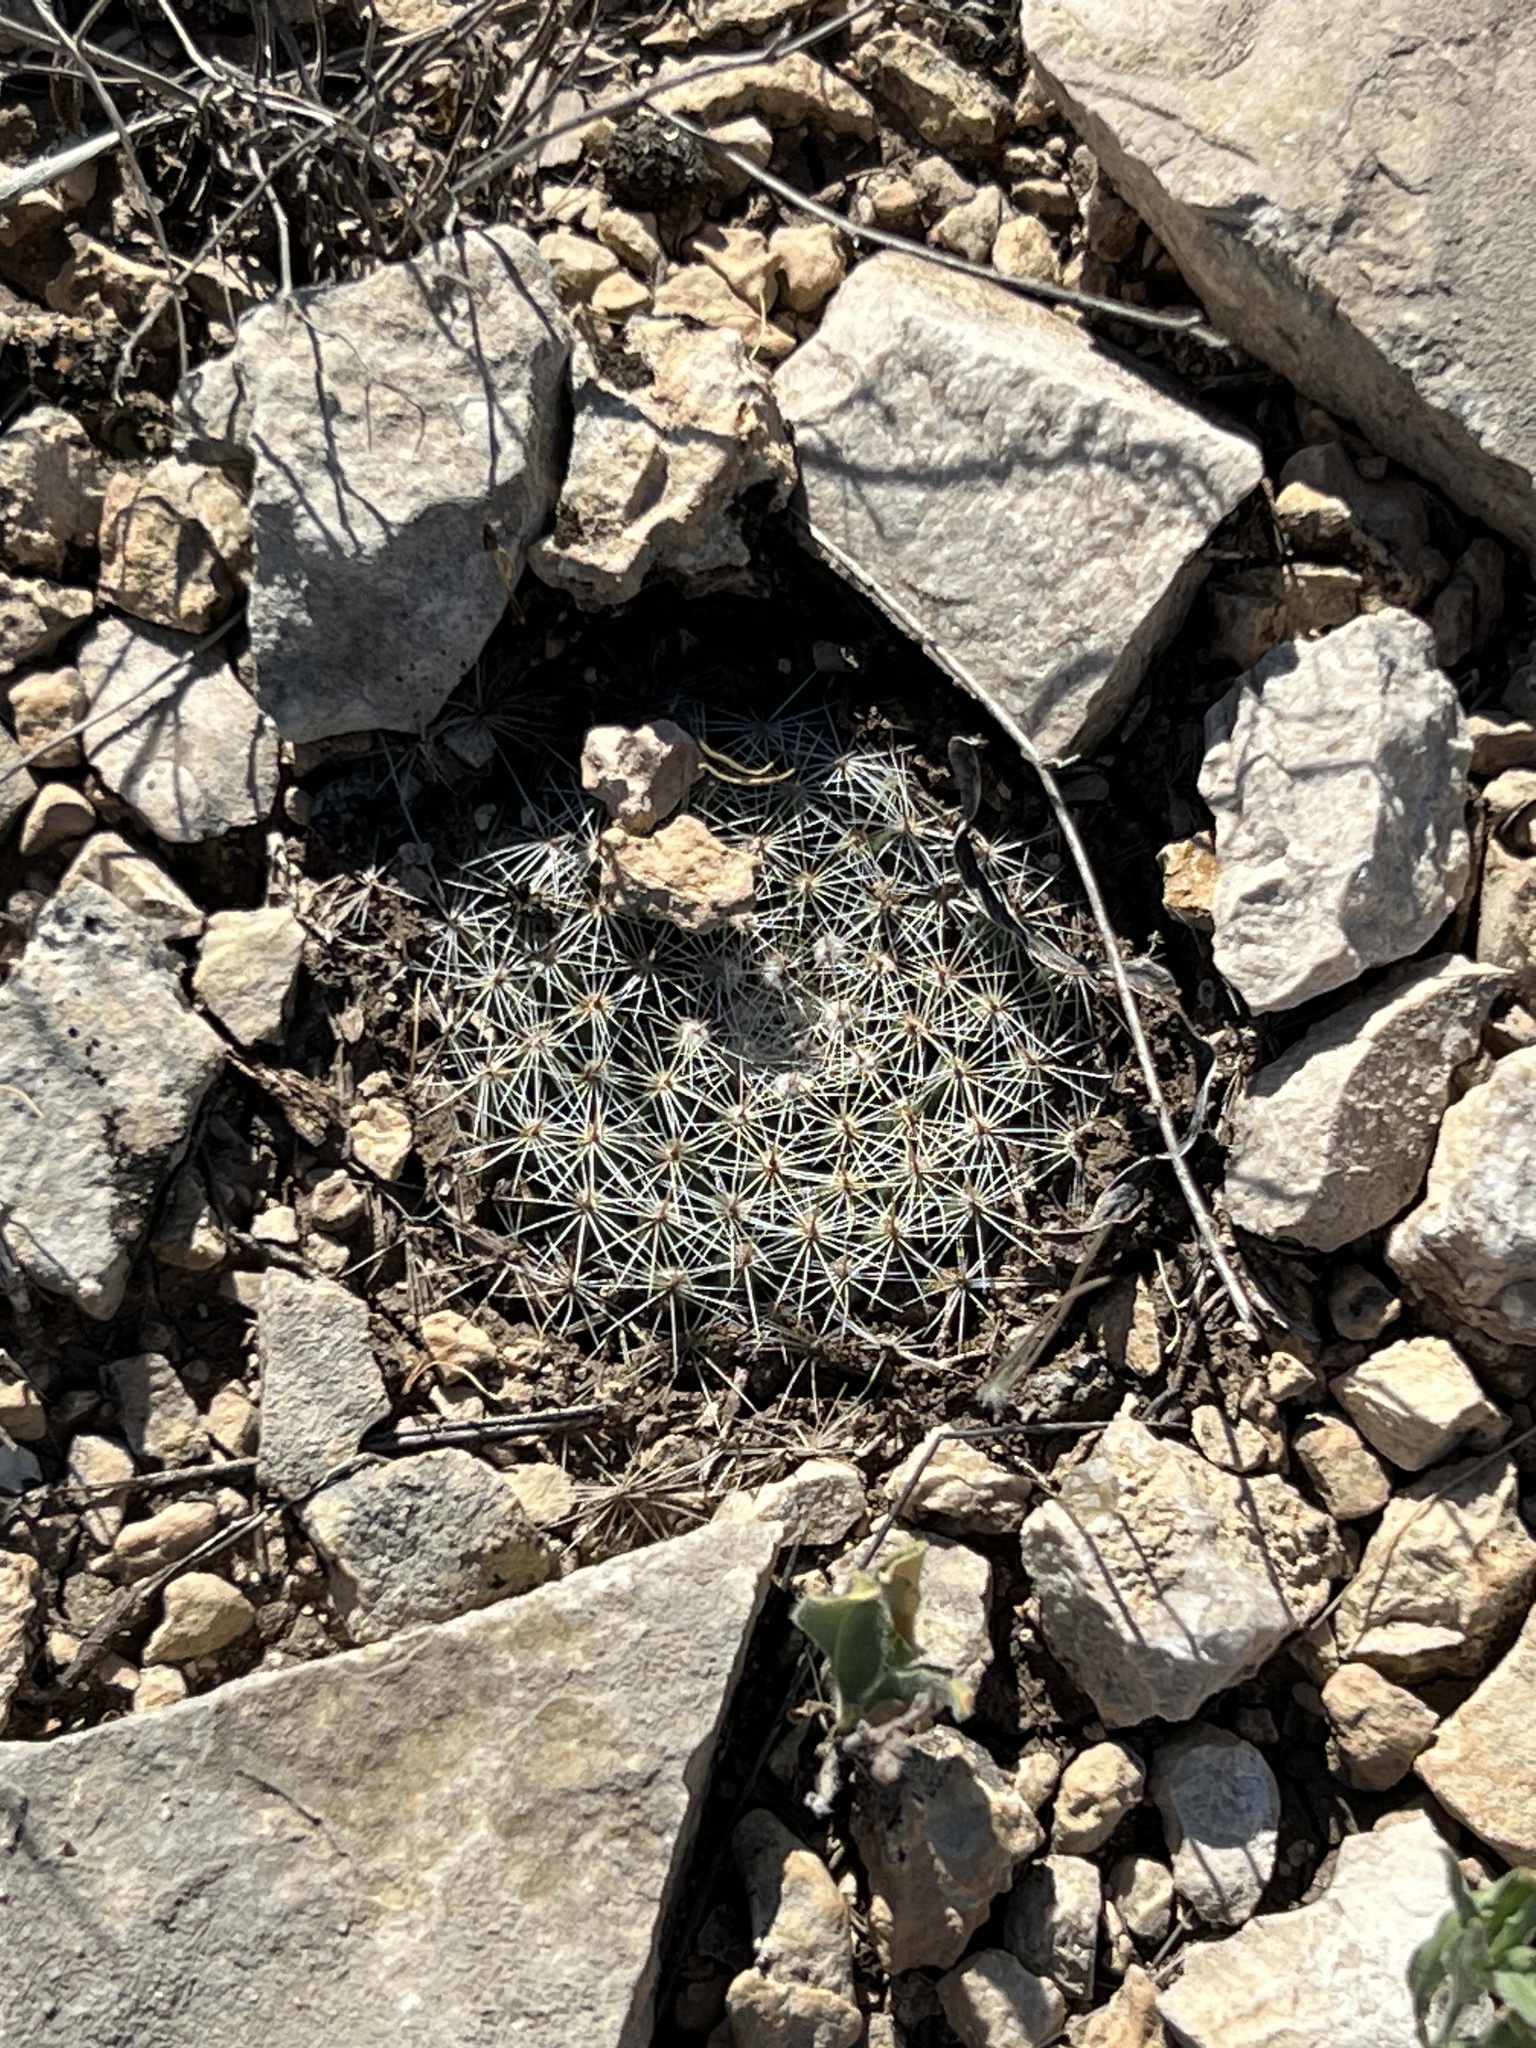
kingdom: Plantae
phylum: Tracheophyta
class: Magnoliopsida
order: Caryophyllales
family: Cactaceae
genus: Mammillaria
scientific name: Mammillaria heyderi
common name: Little nipple cactus
